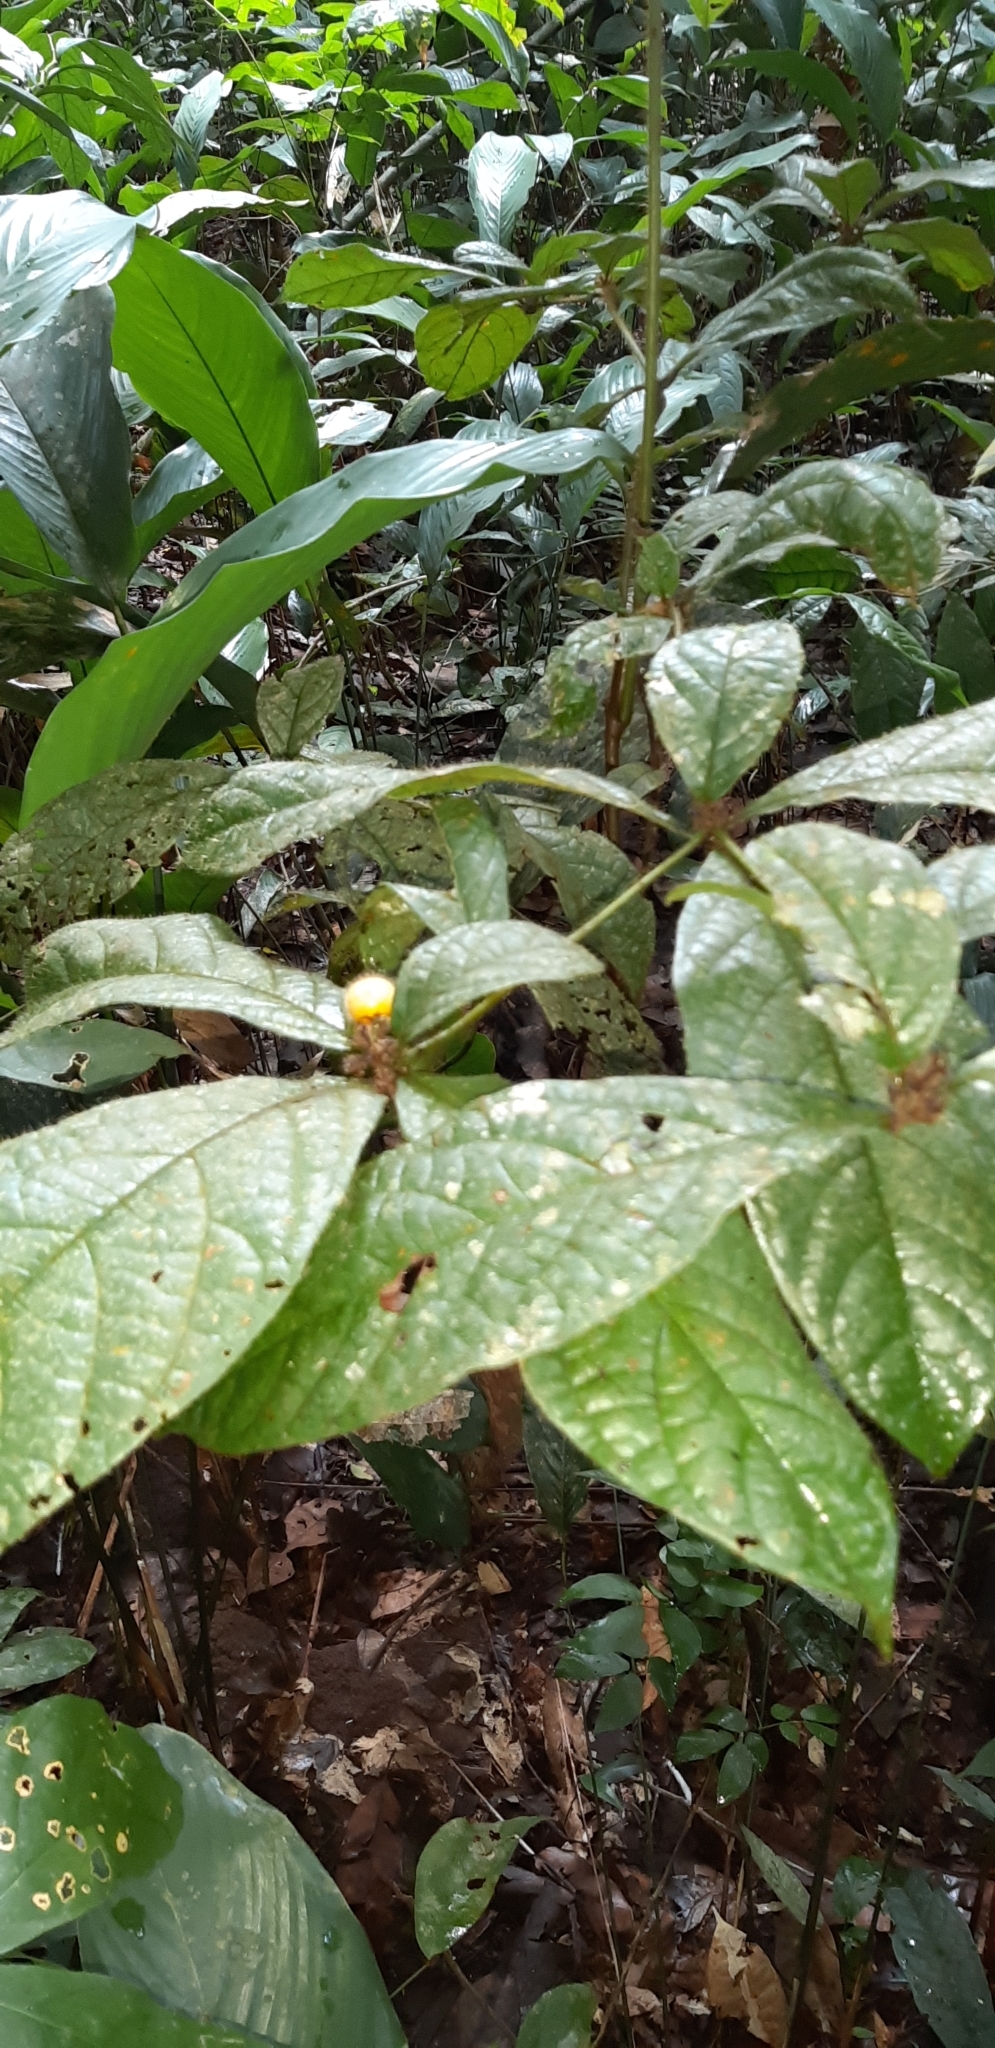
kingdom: Plantae
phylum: Tracheophyta
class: Magnoliopsida
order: Boraginales
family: Cordiaceae
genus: Cordia
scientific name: Cordia nodosa
